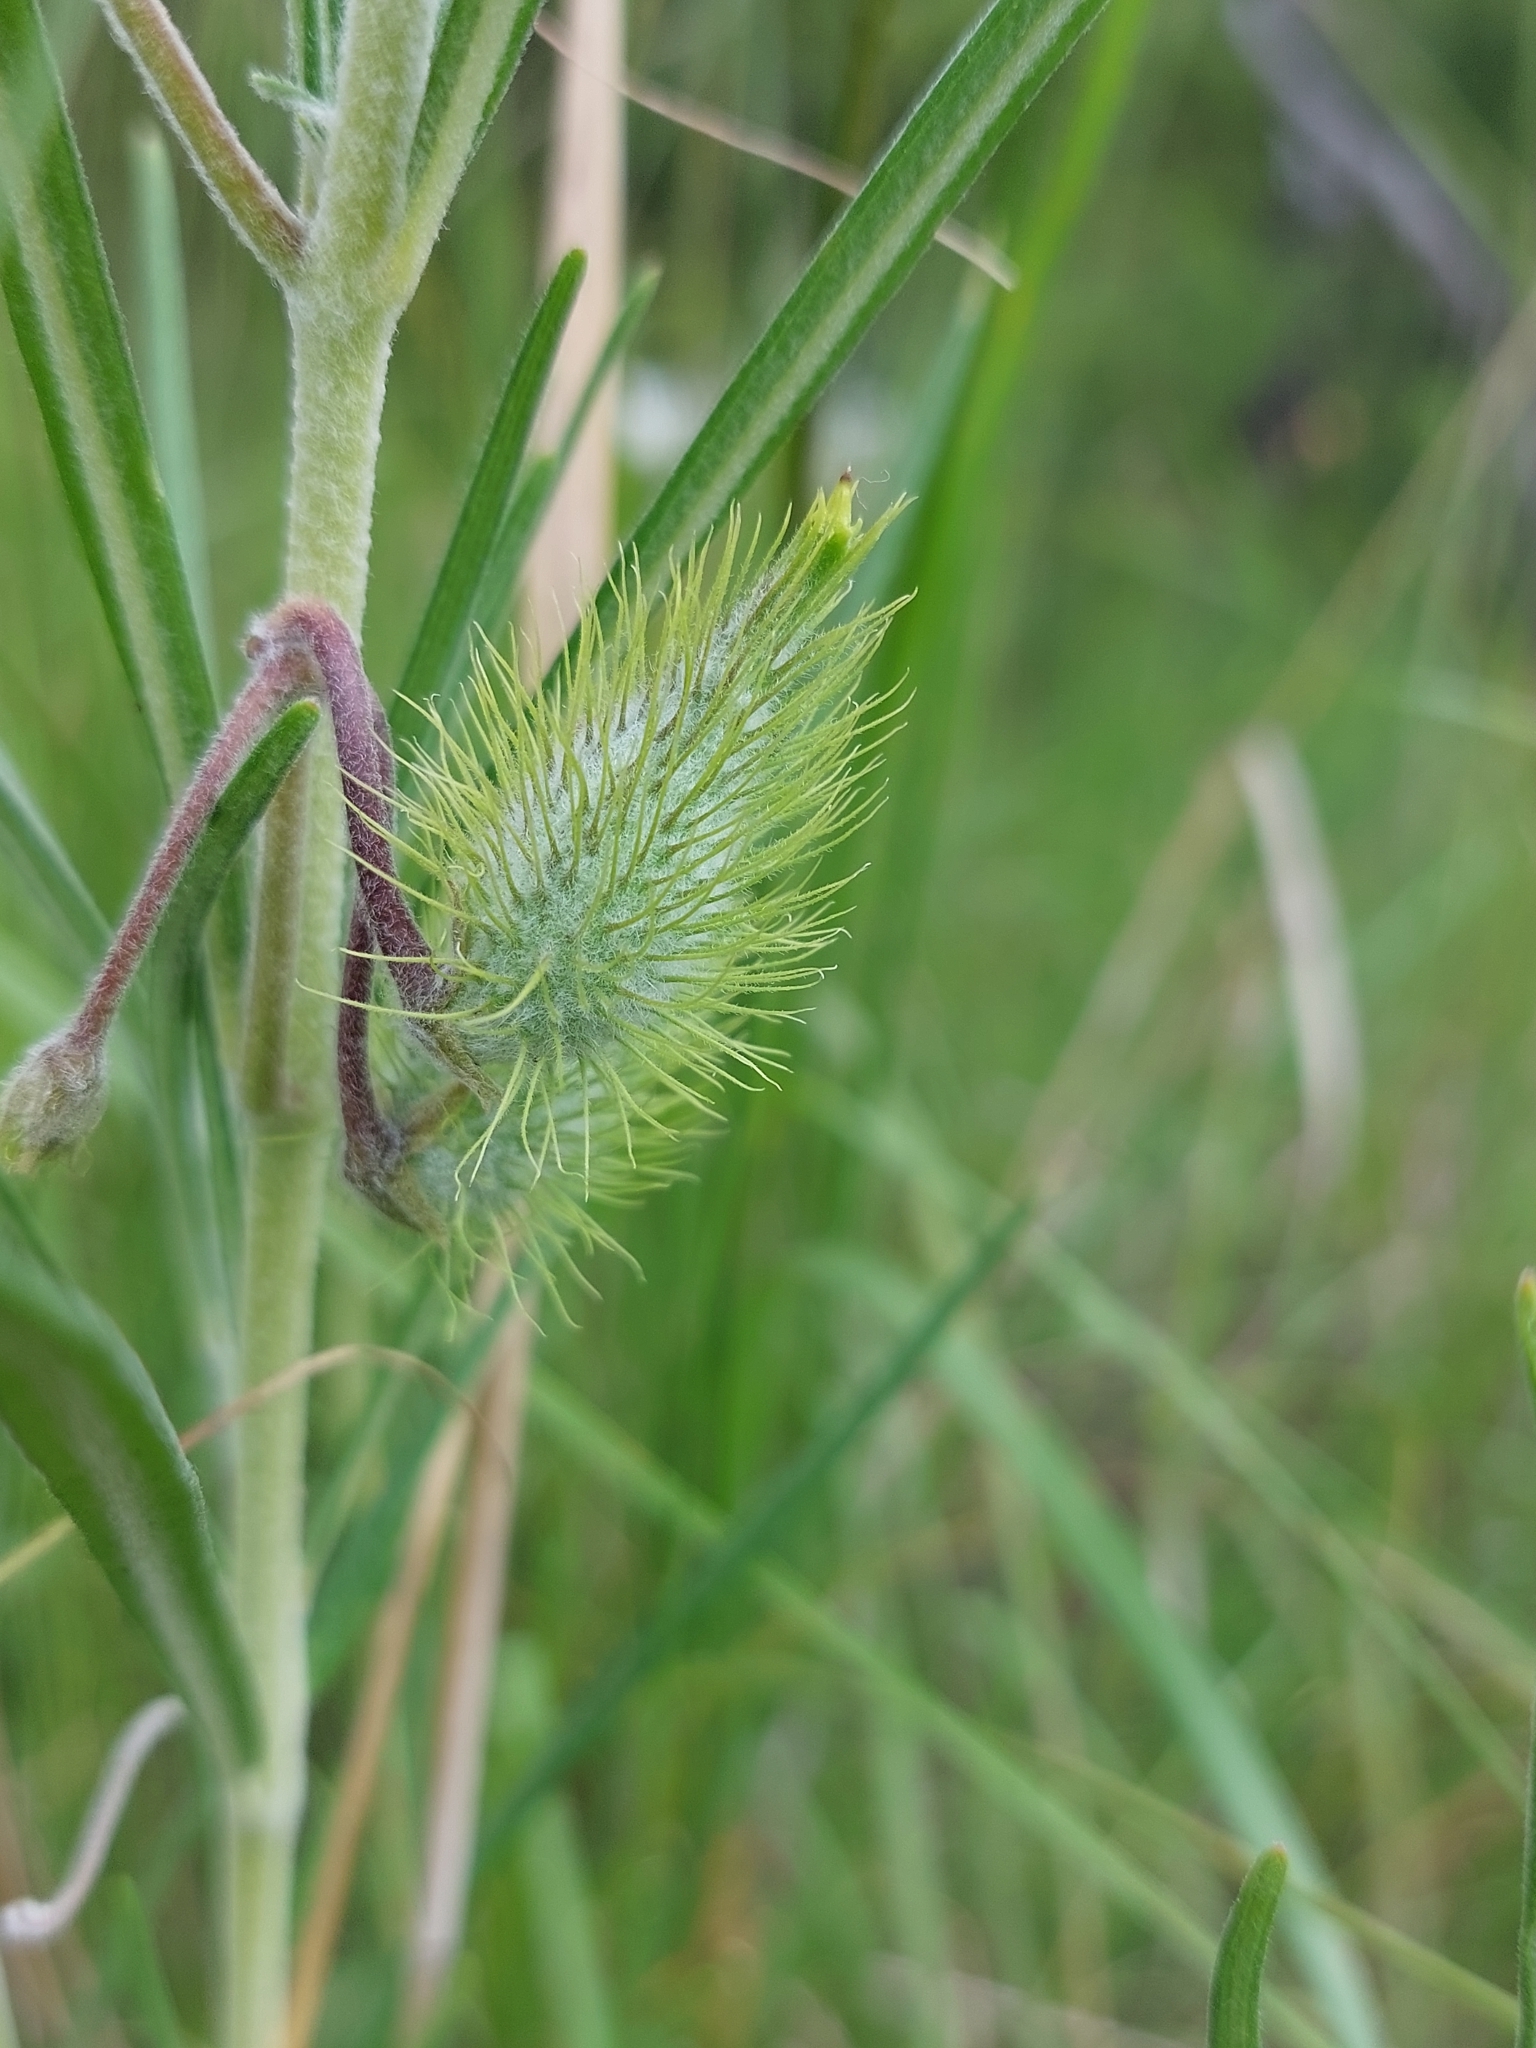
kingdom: Plantae
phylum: Tracheophyta
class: Magnoliopsida
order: Gentianales
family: Apocynaceae
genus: Gomphocarpus
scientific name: Gomphocarpus tomentosus
